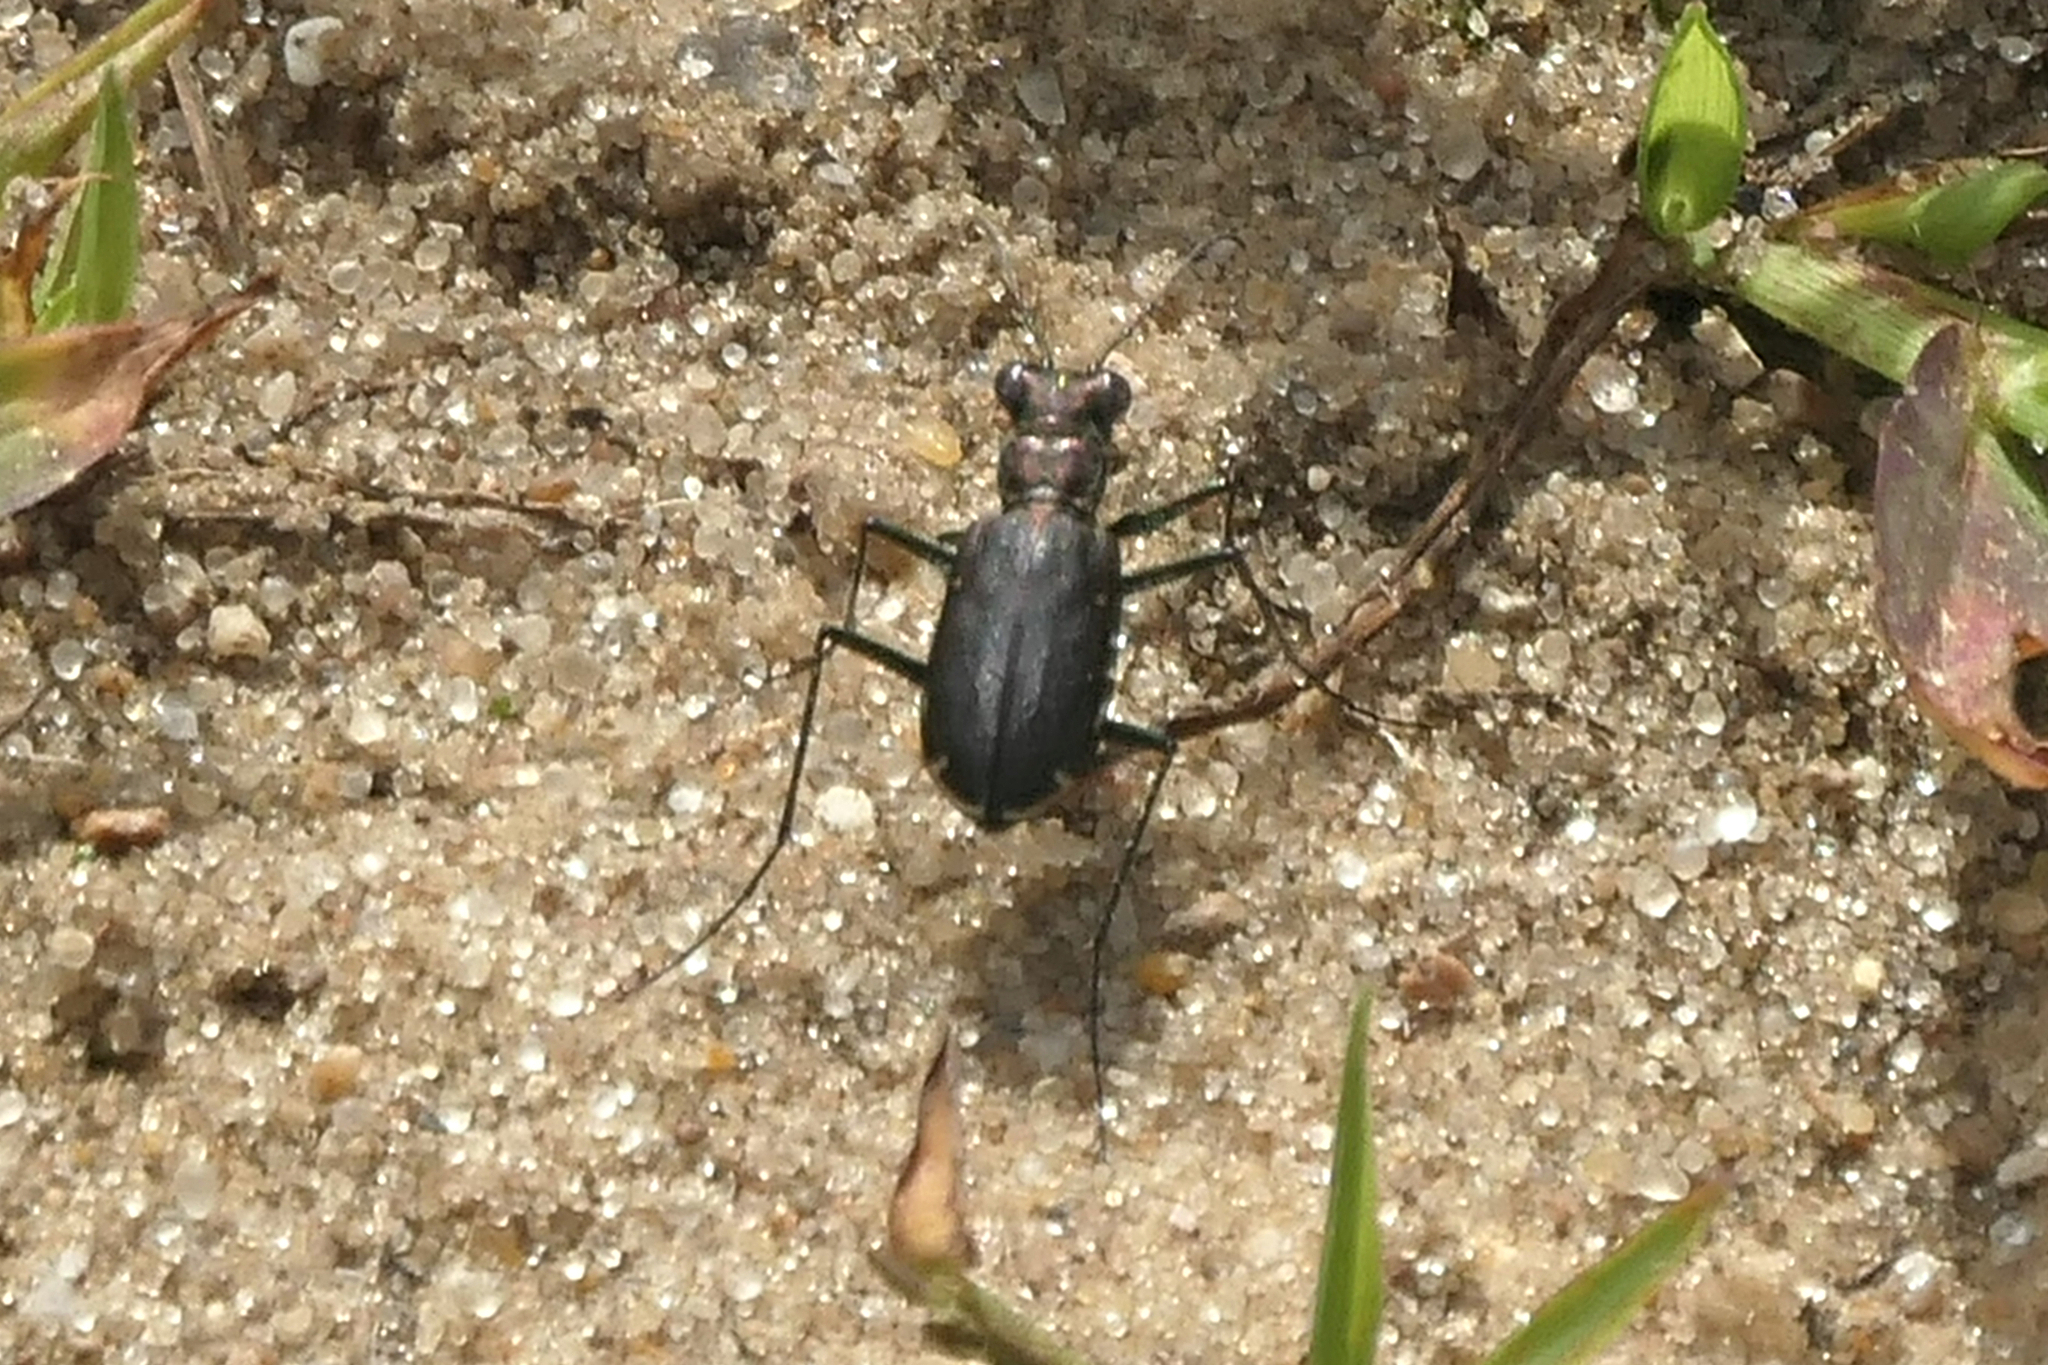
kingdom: Animalia
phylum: Arthropoda
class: Insecta
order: Coleoptera
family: Carabidae
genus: Cicindela
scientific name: Cicindela punctulata
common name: Punctured tiger beetle
